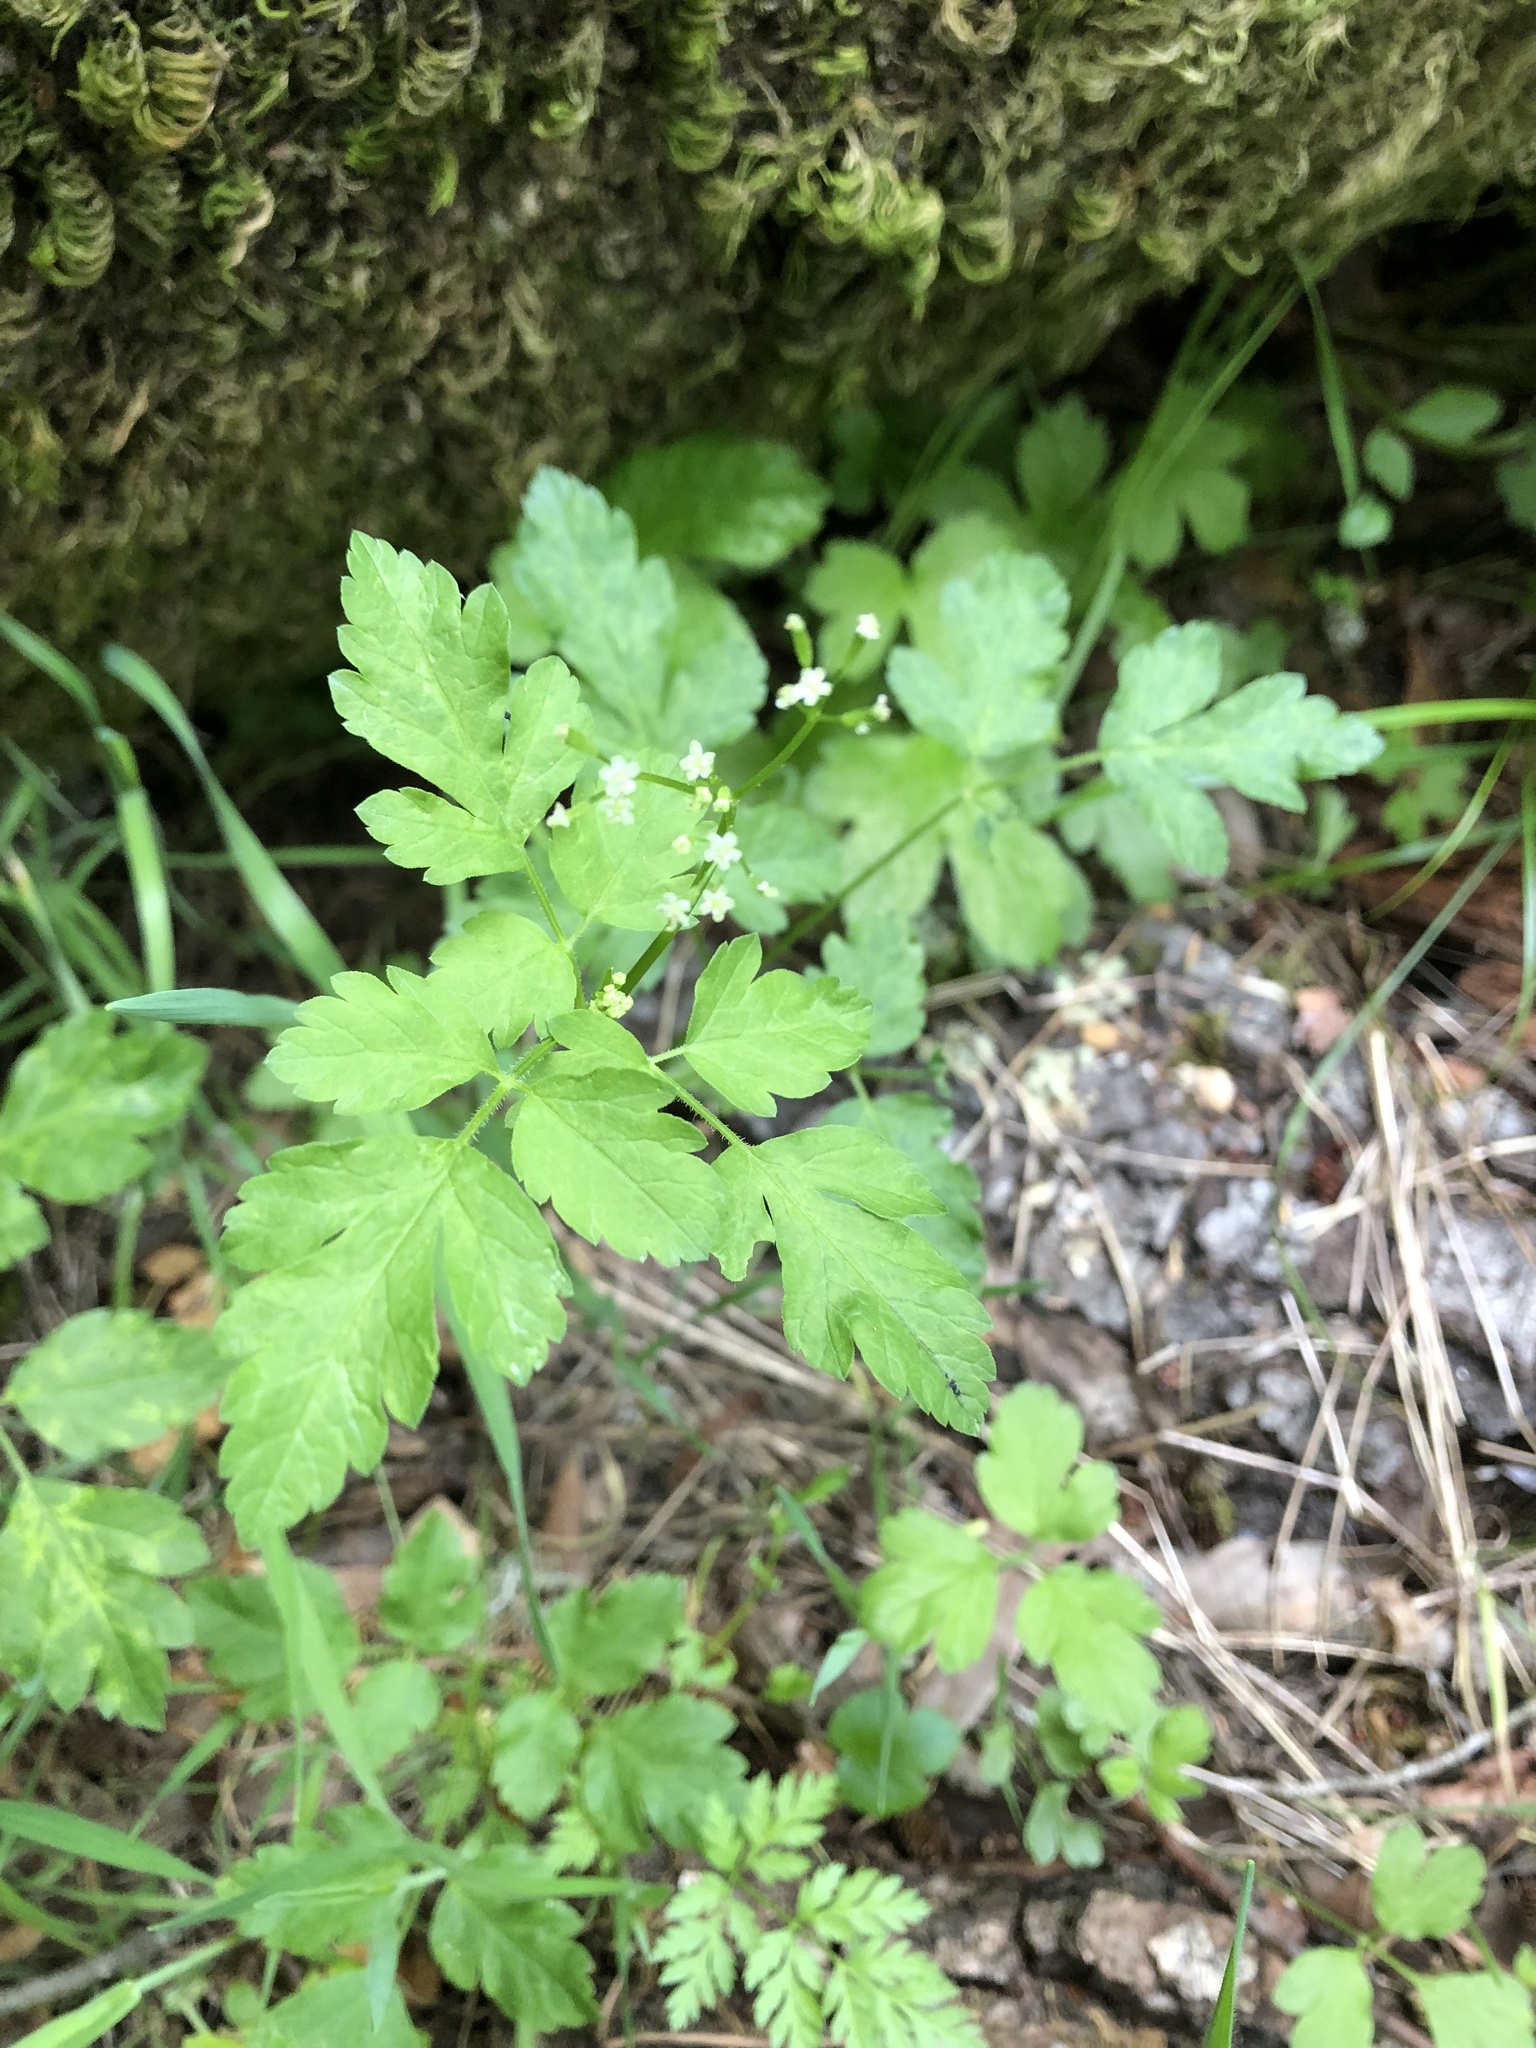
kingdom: Plantae
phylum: Tracheophyta
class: Magnoliopsida
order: Apiales
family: Apiaceae
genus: Osmorhiza
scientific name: Osmorhiza berteroi
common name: Mountain sweet cicely
